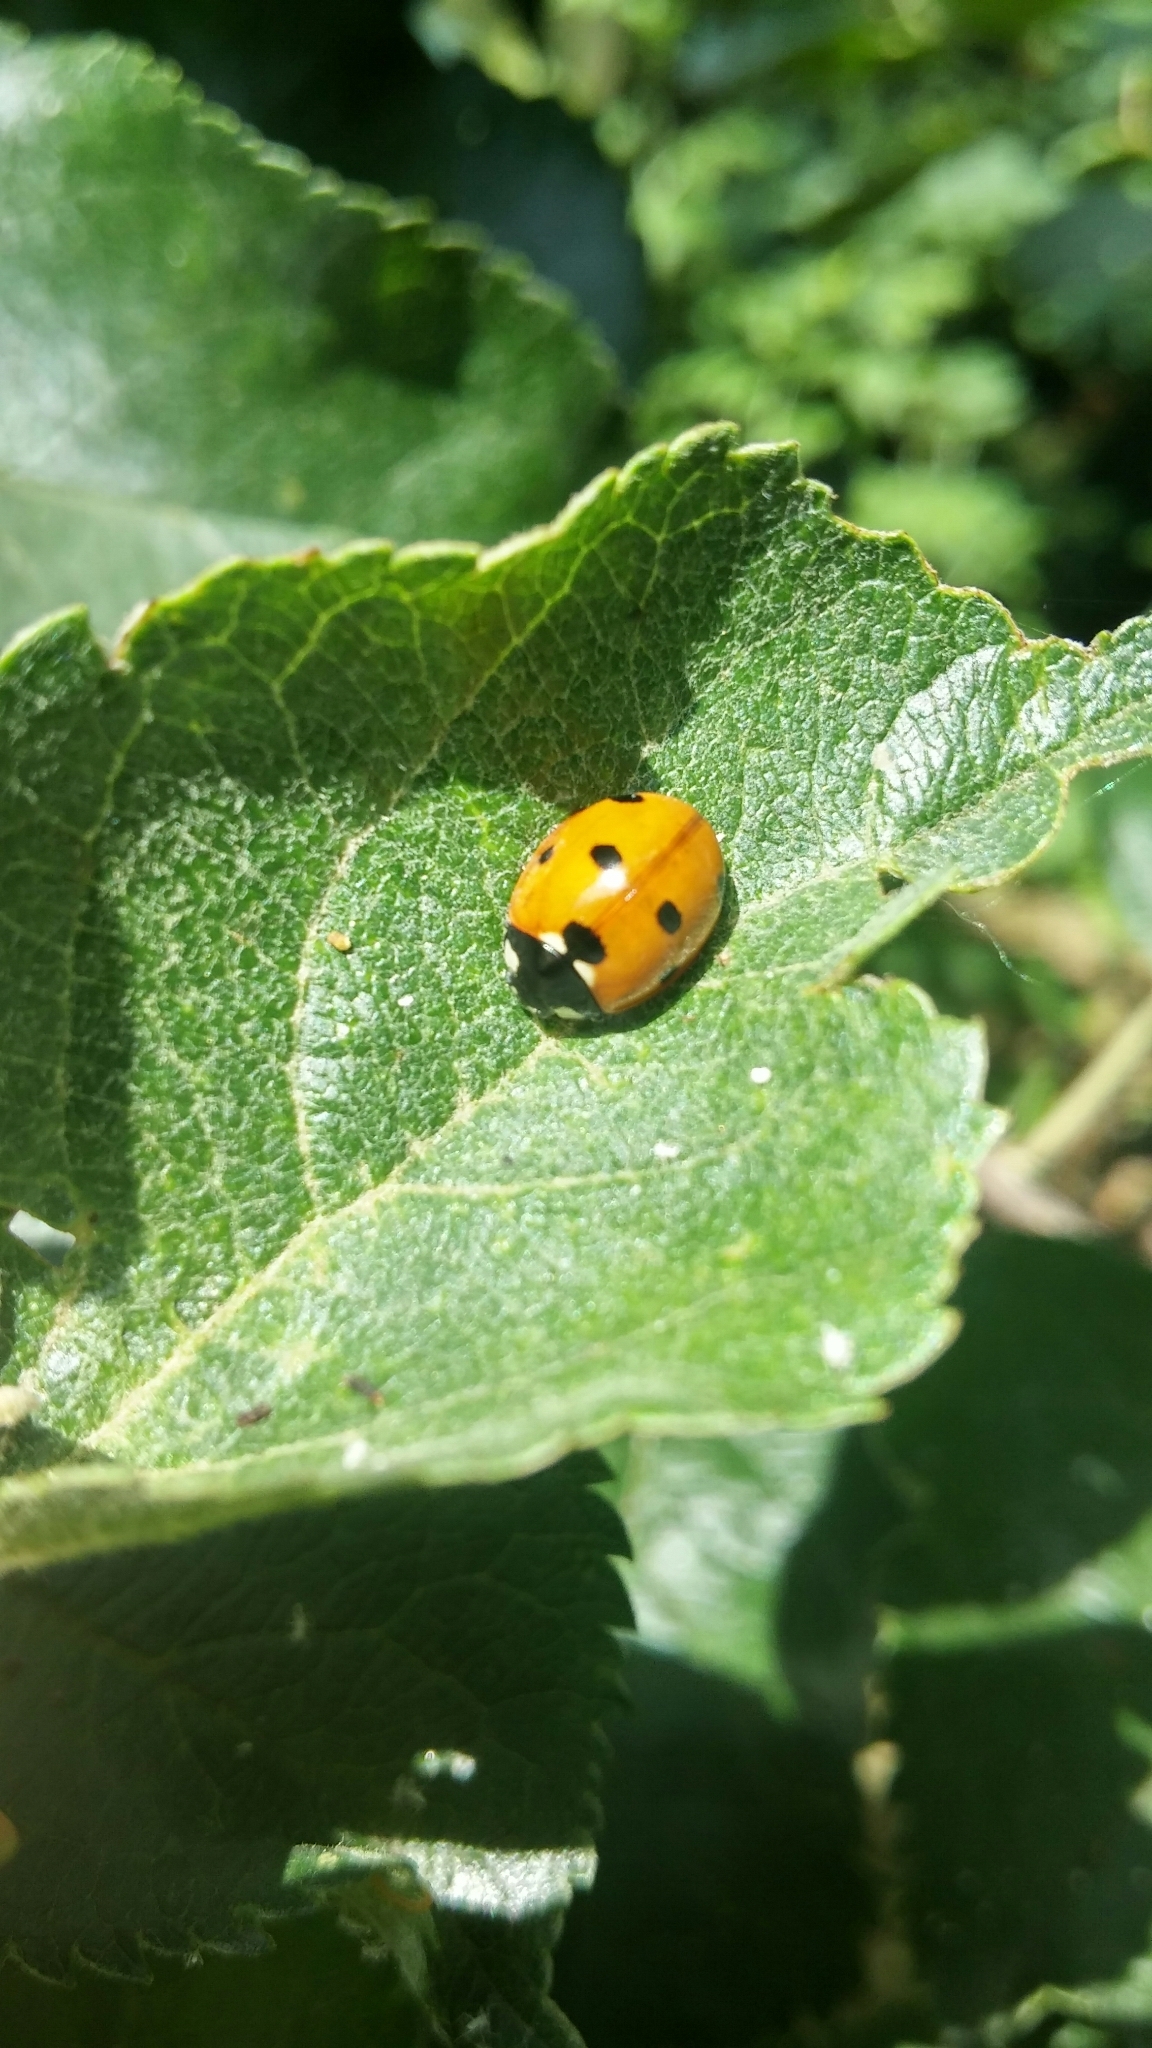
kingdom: Animalia
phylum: Arthropoda
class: Insecta
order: Coleoptera
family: Coccinellidae
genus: Coccinella
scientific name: Coccinella septempunctata
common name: Sevenspotted lady beetle
